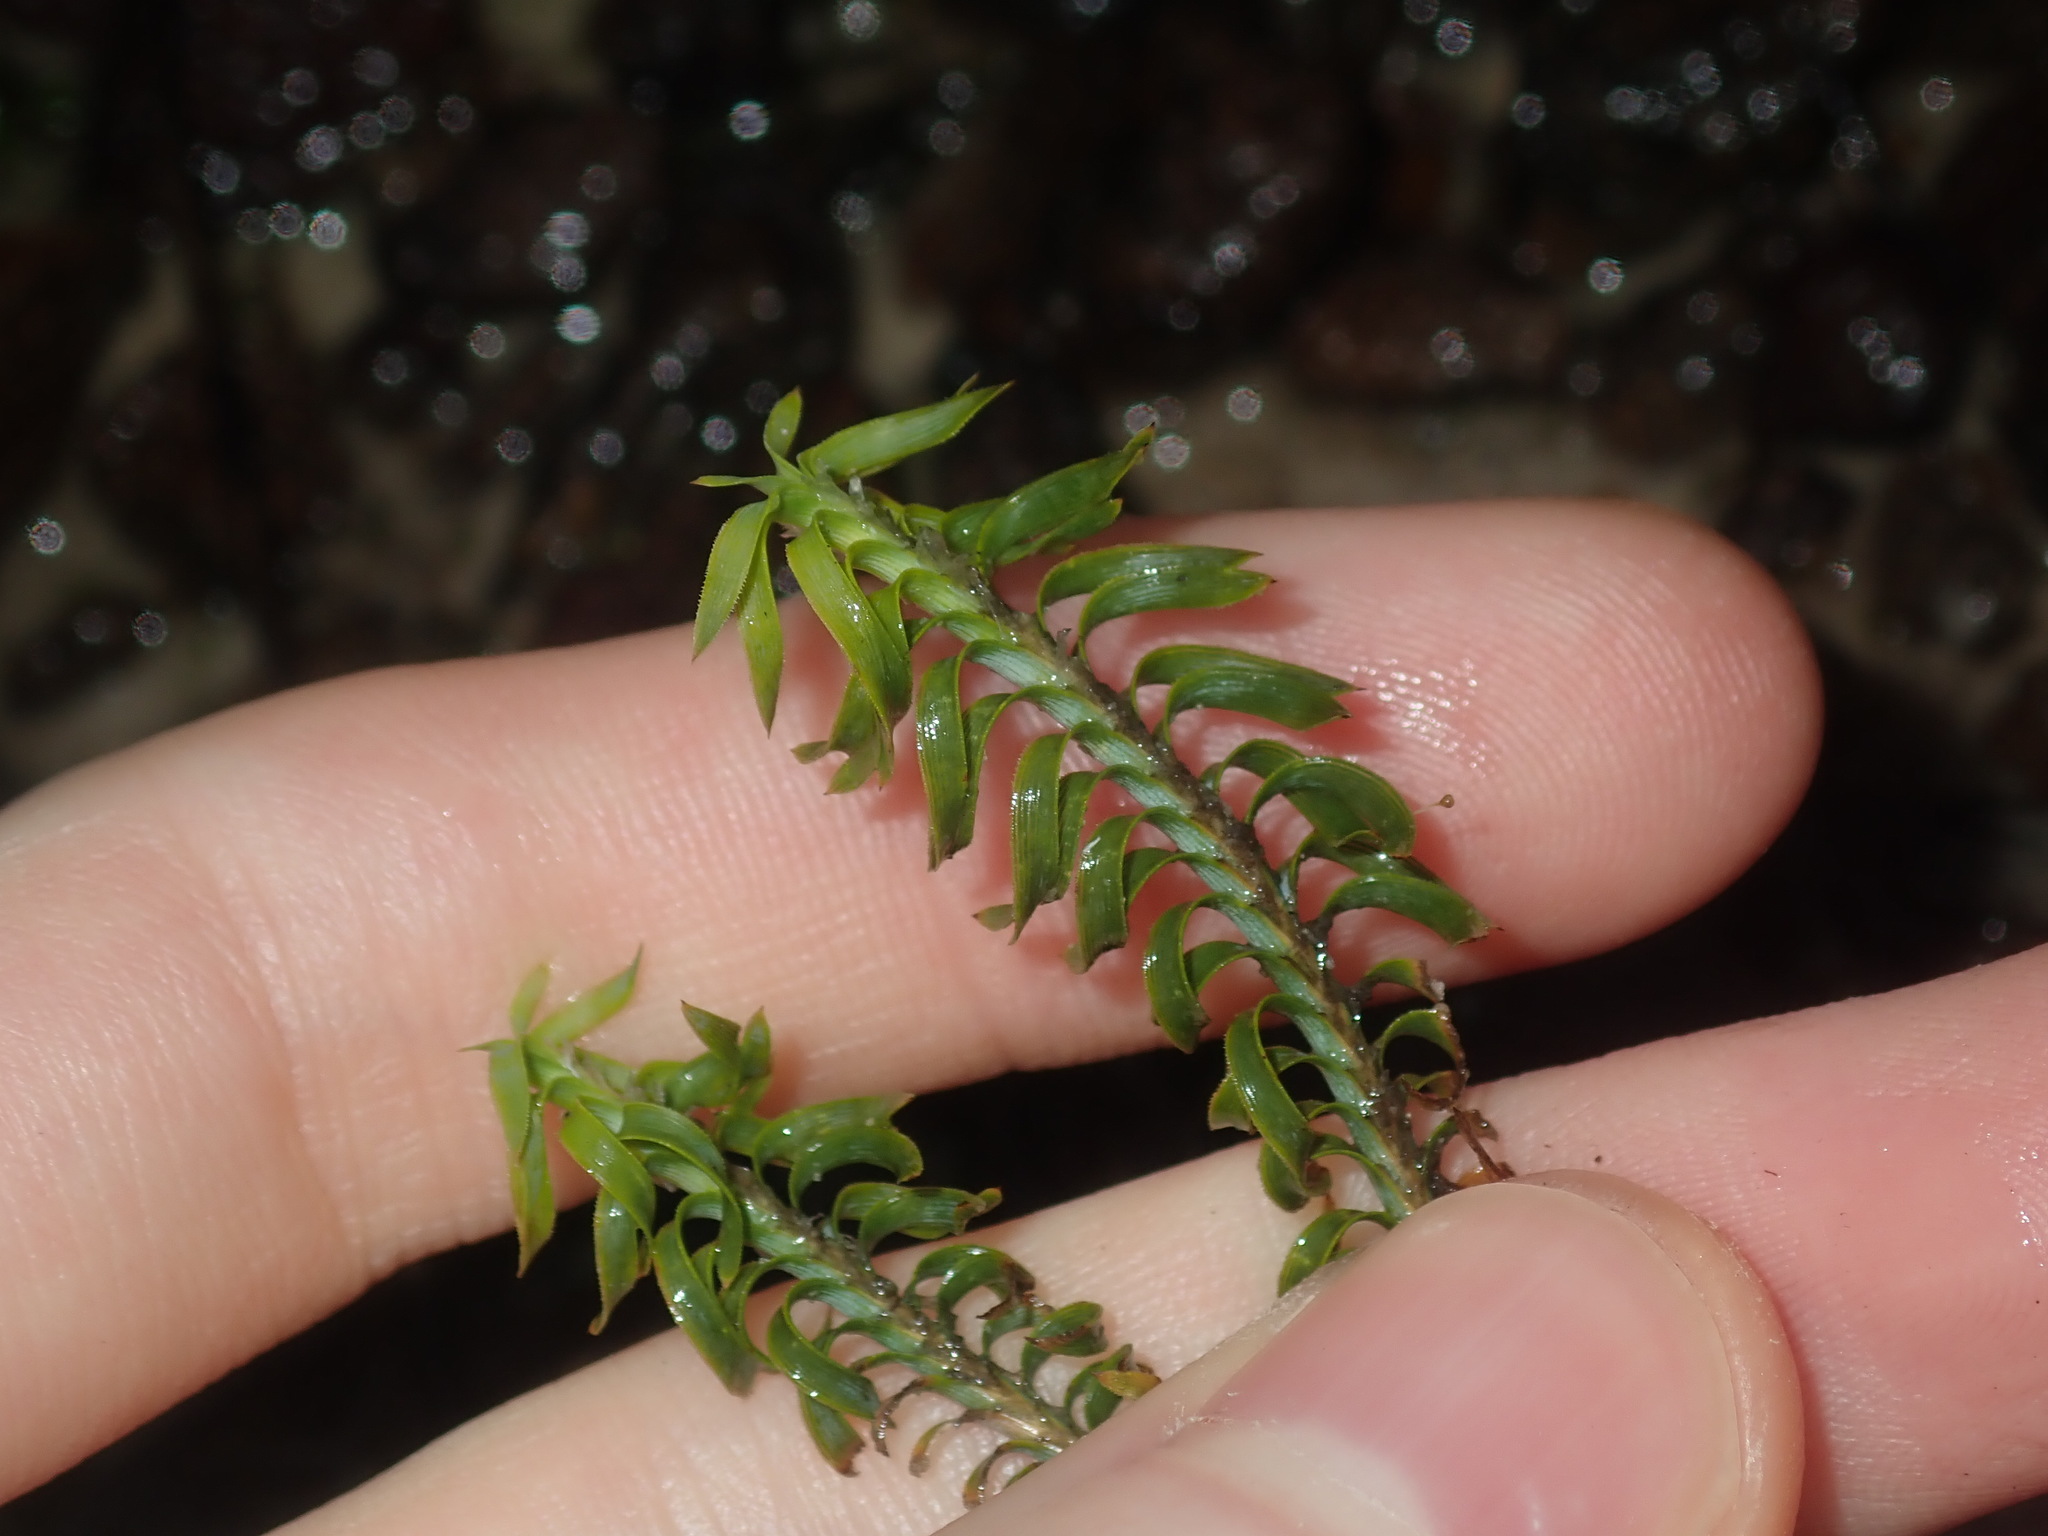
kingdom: Plantae
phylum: Tracheophyta
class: Liliopsida
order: Asparagales
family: Asparagaceae
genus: Lomandra
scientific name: Lomandra obliqua
